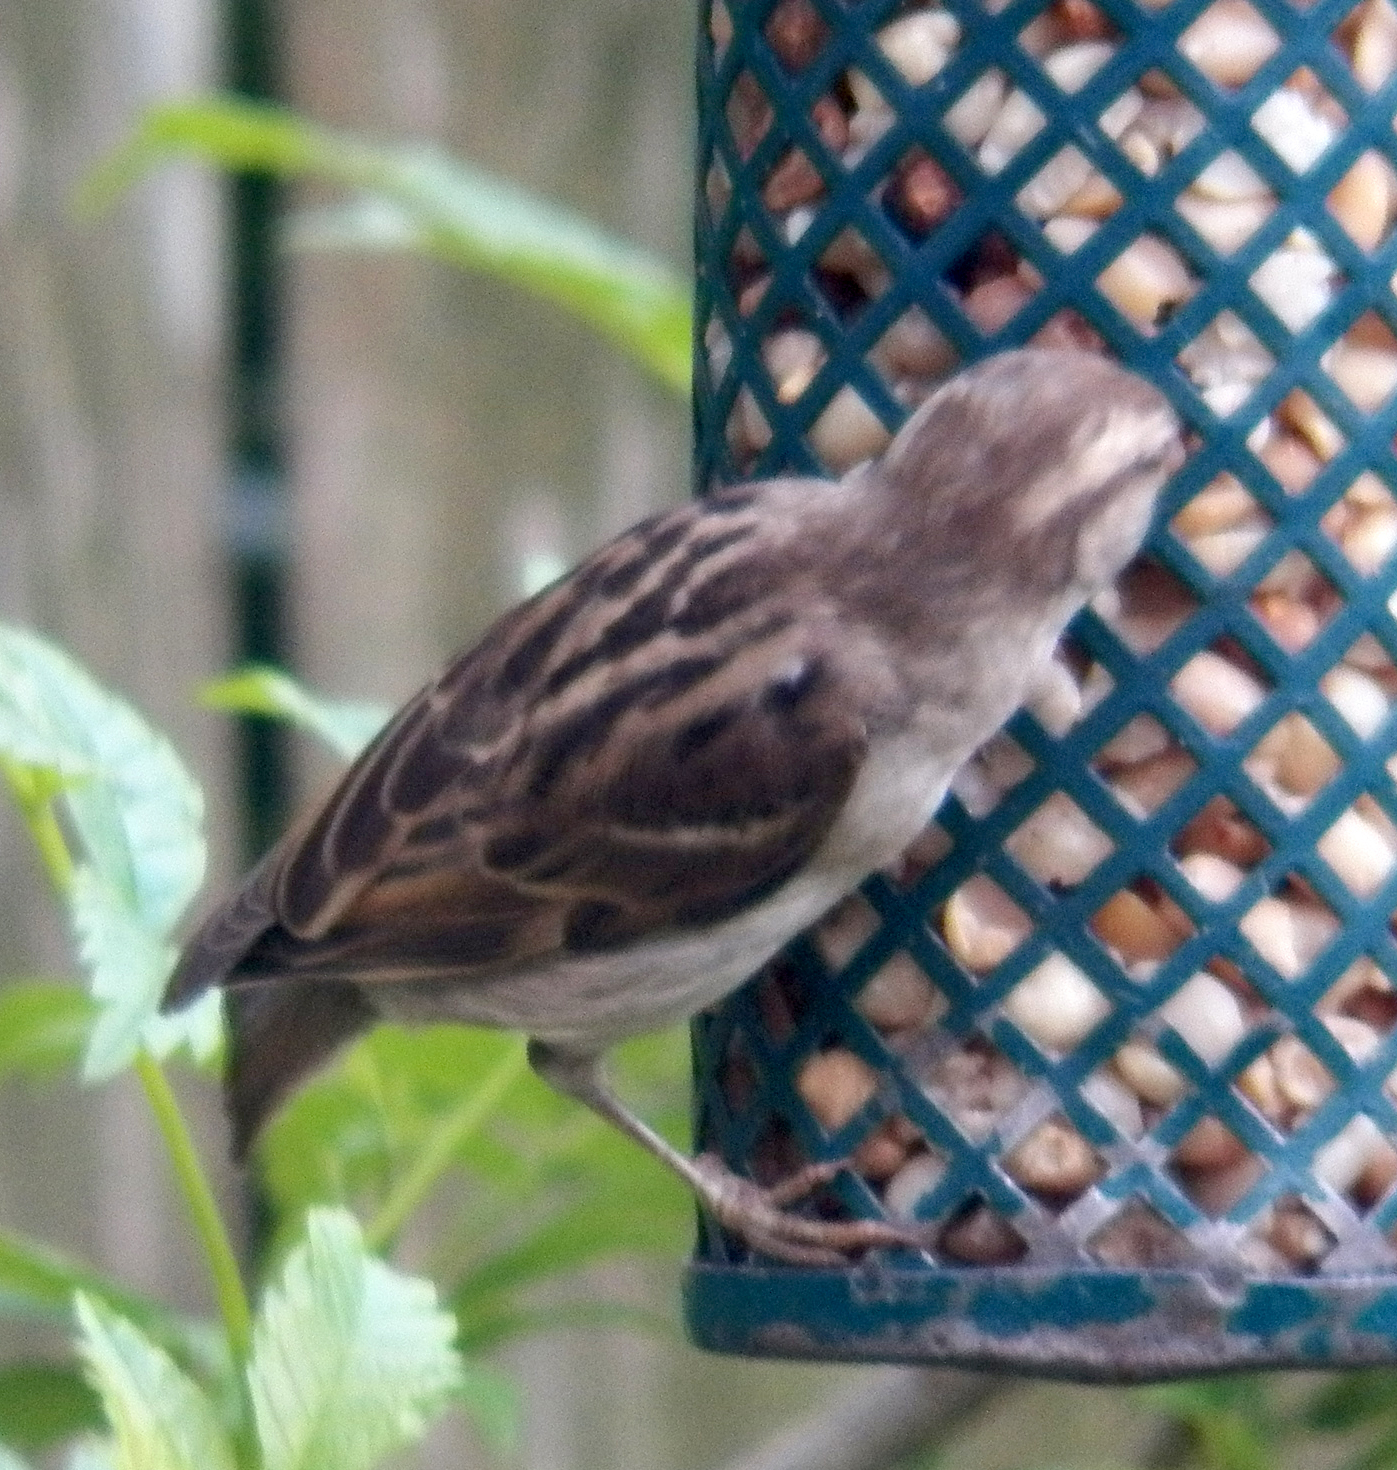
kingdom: Animalia
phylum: Chordata
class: Aves
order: Passeriformes
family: Passeridae
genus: Passer
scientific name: Passer domesticus
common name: House sparrow
